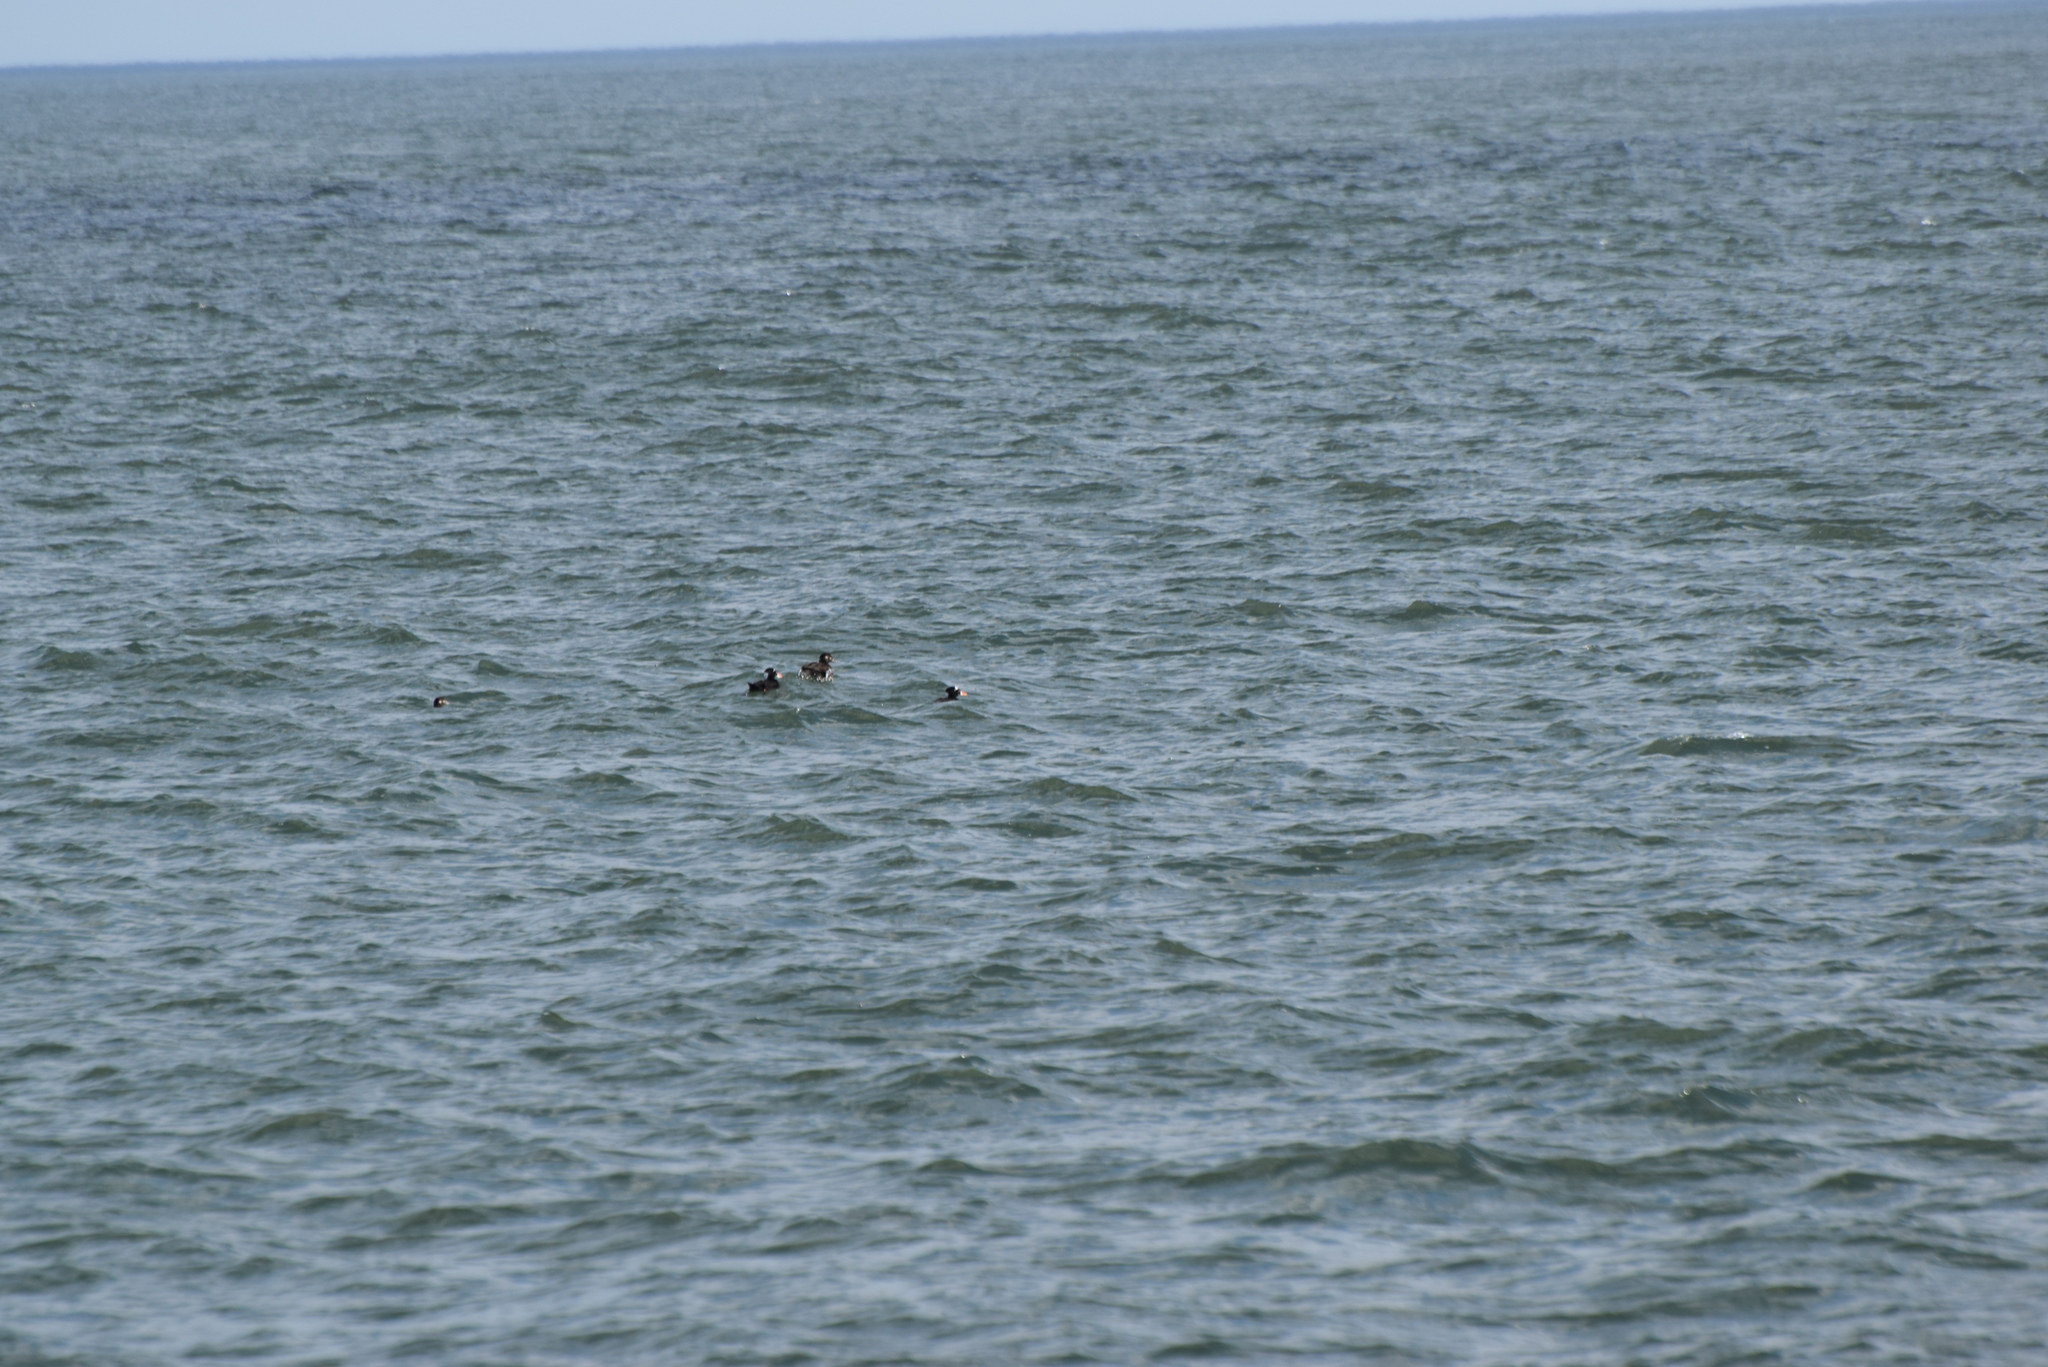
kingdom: Animalia
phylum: Chordata
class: Aves
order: Anseriformes
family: Anatidae
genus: Melanitta
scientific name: Melanitta perspicillata
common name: Surf scoter
